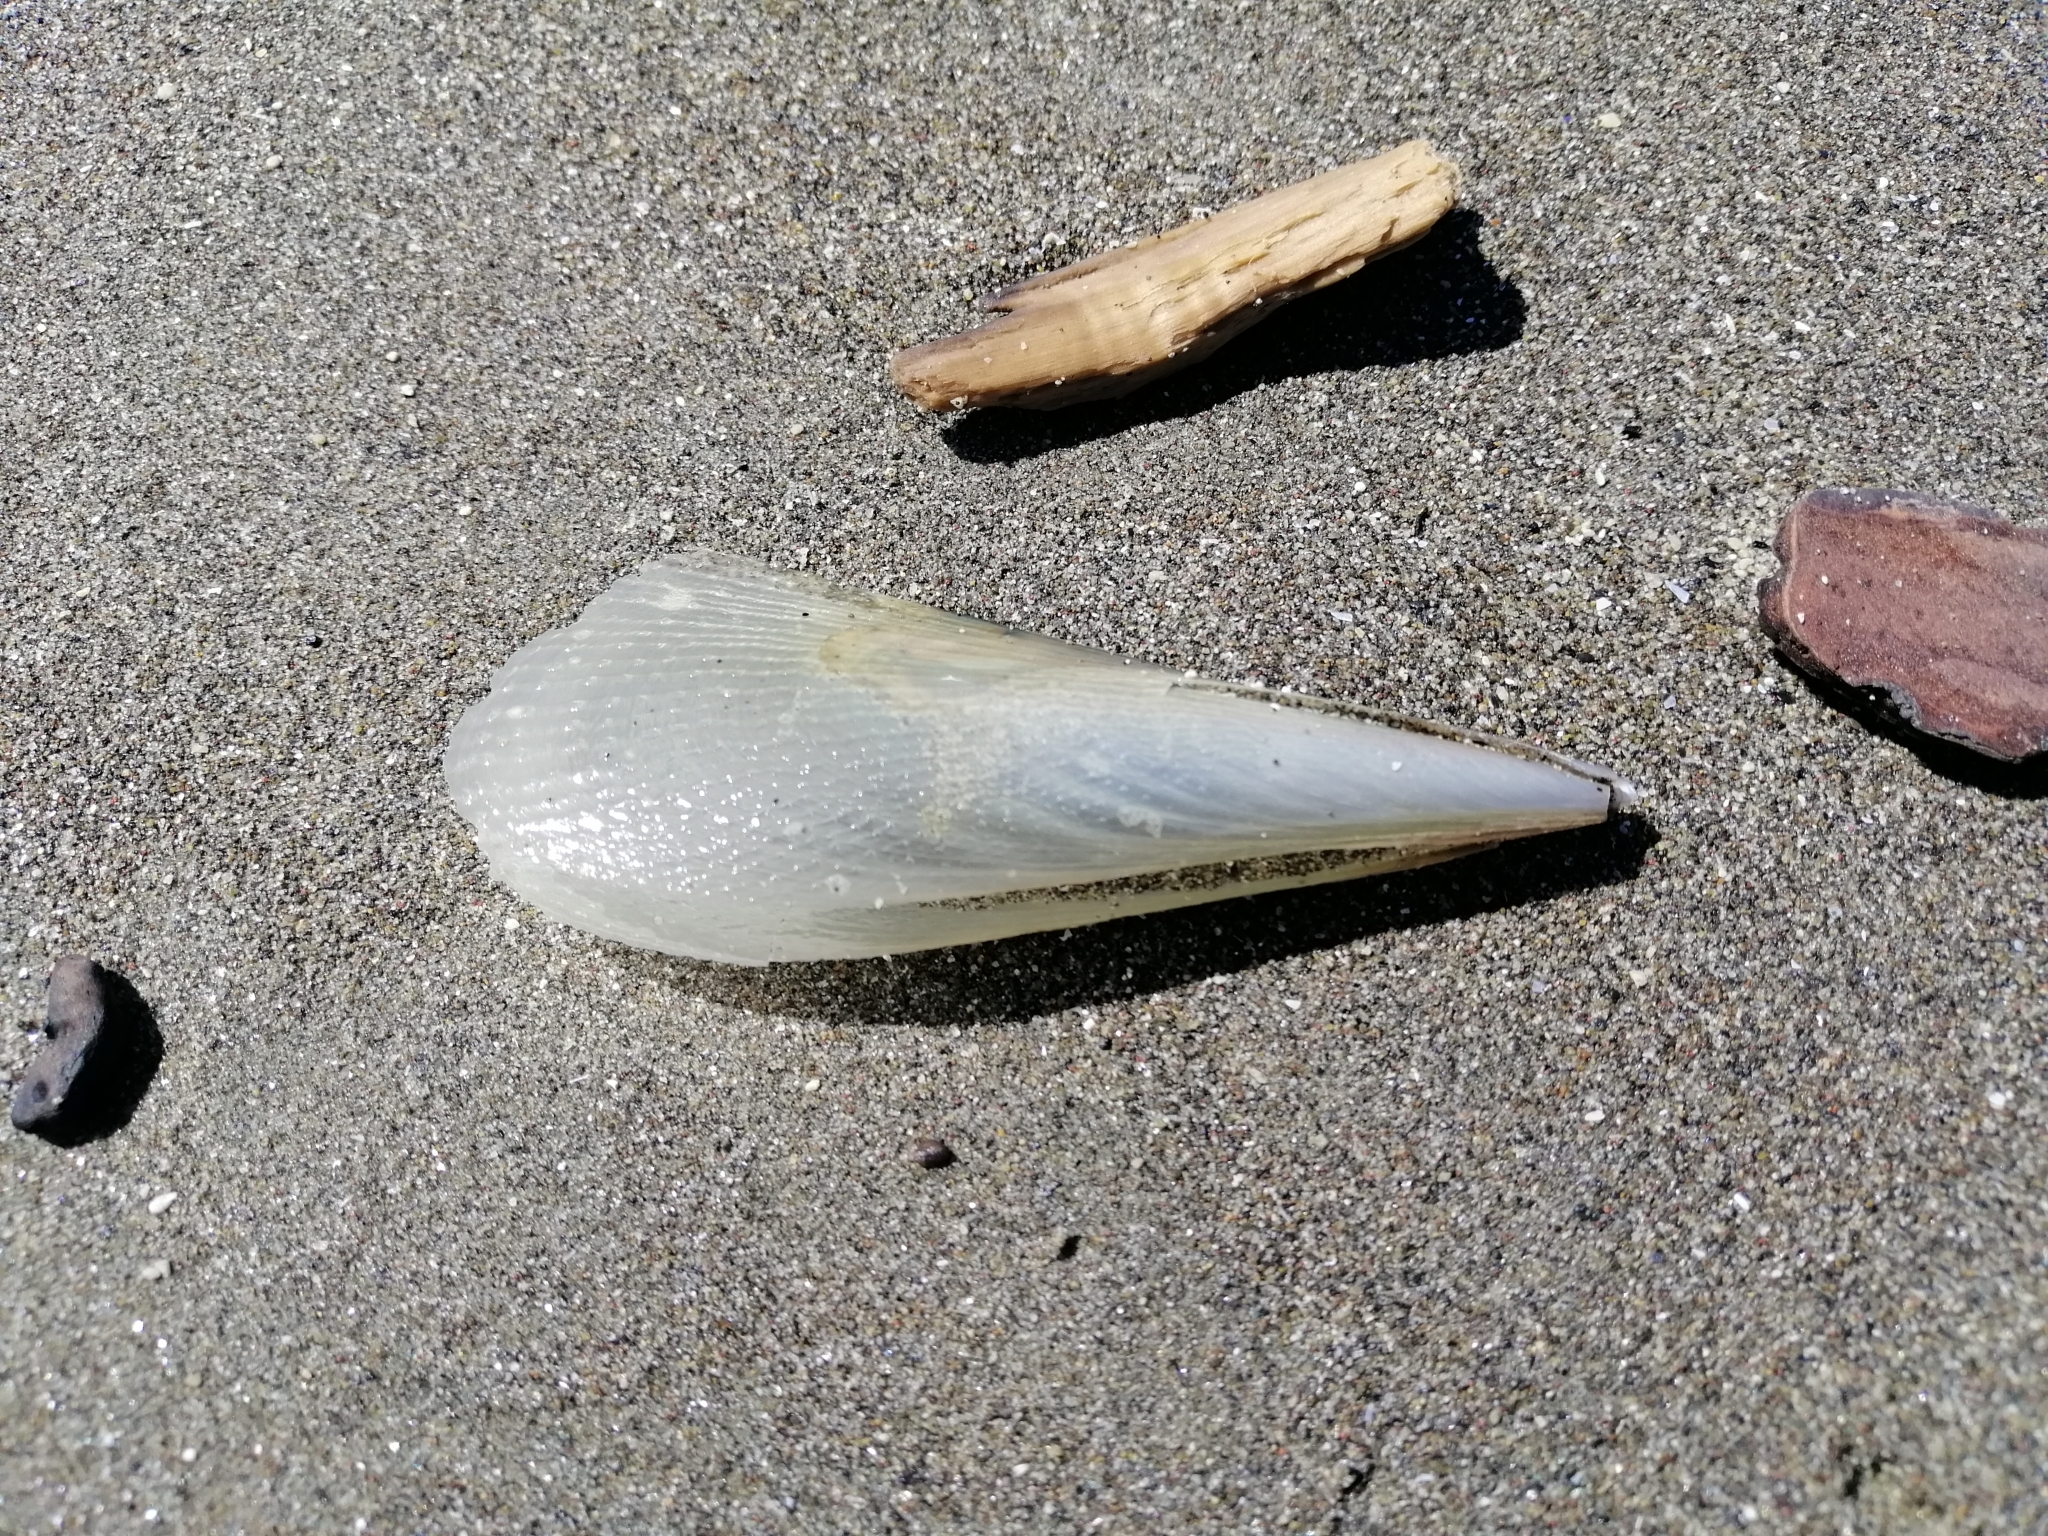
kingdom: Animalia
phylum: Mollusca
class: Bivalvia
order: Ostreida
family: Pinnidae
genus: Atrina
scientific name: Atrina zelandica
